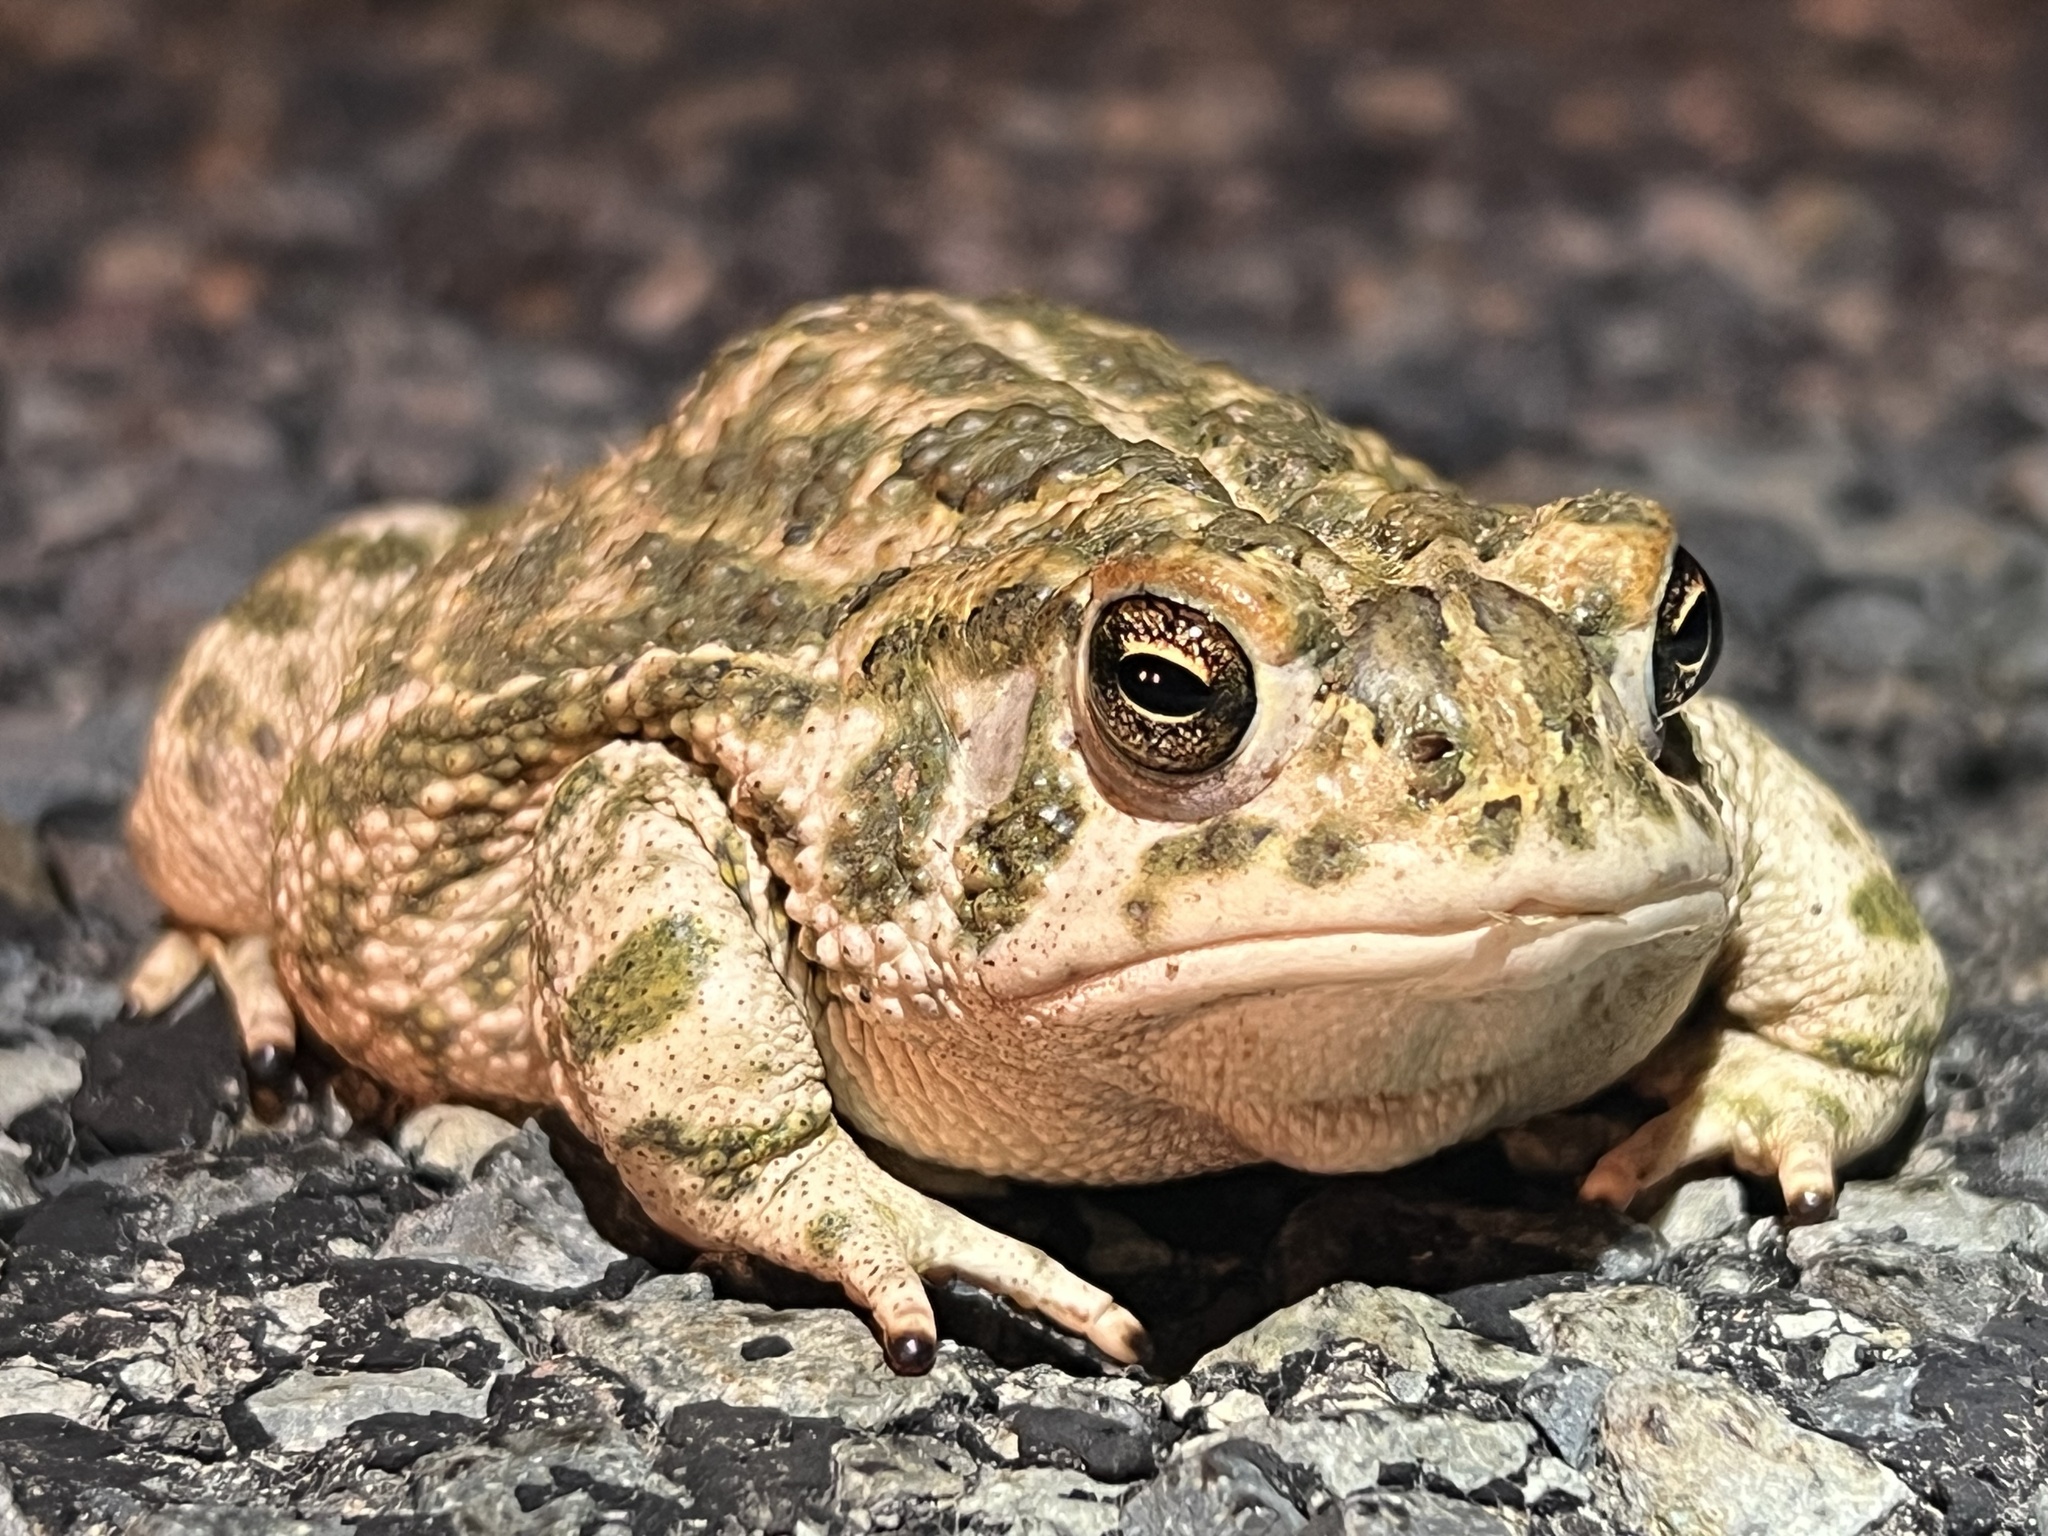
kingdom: Animalia
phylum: Chordata
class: Amphibia
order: Anura
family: Bufonidae
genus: Anaxyrus
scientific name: Anaxyrus cognatus
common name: Great plains toad
